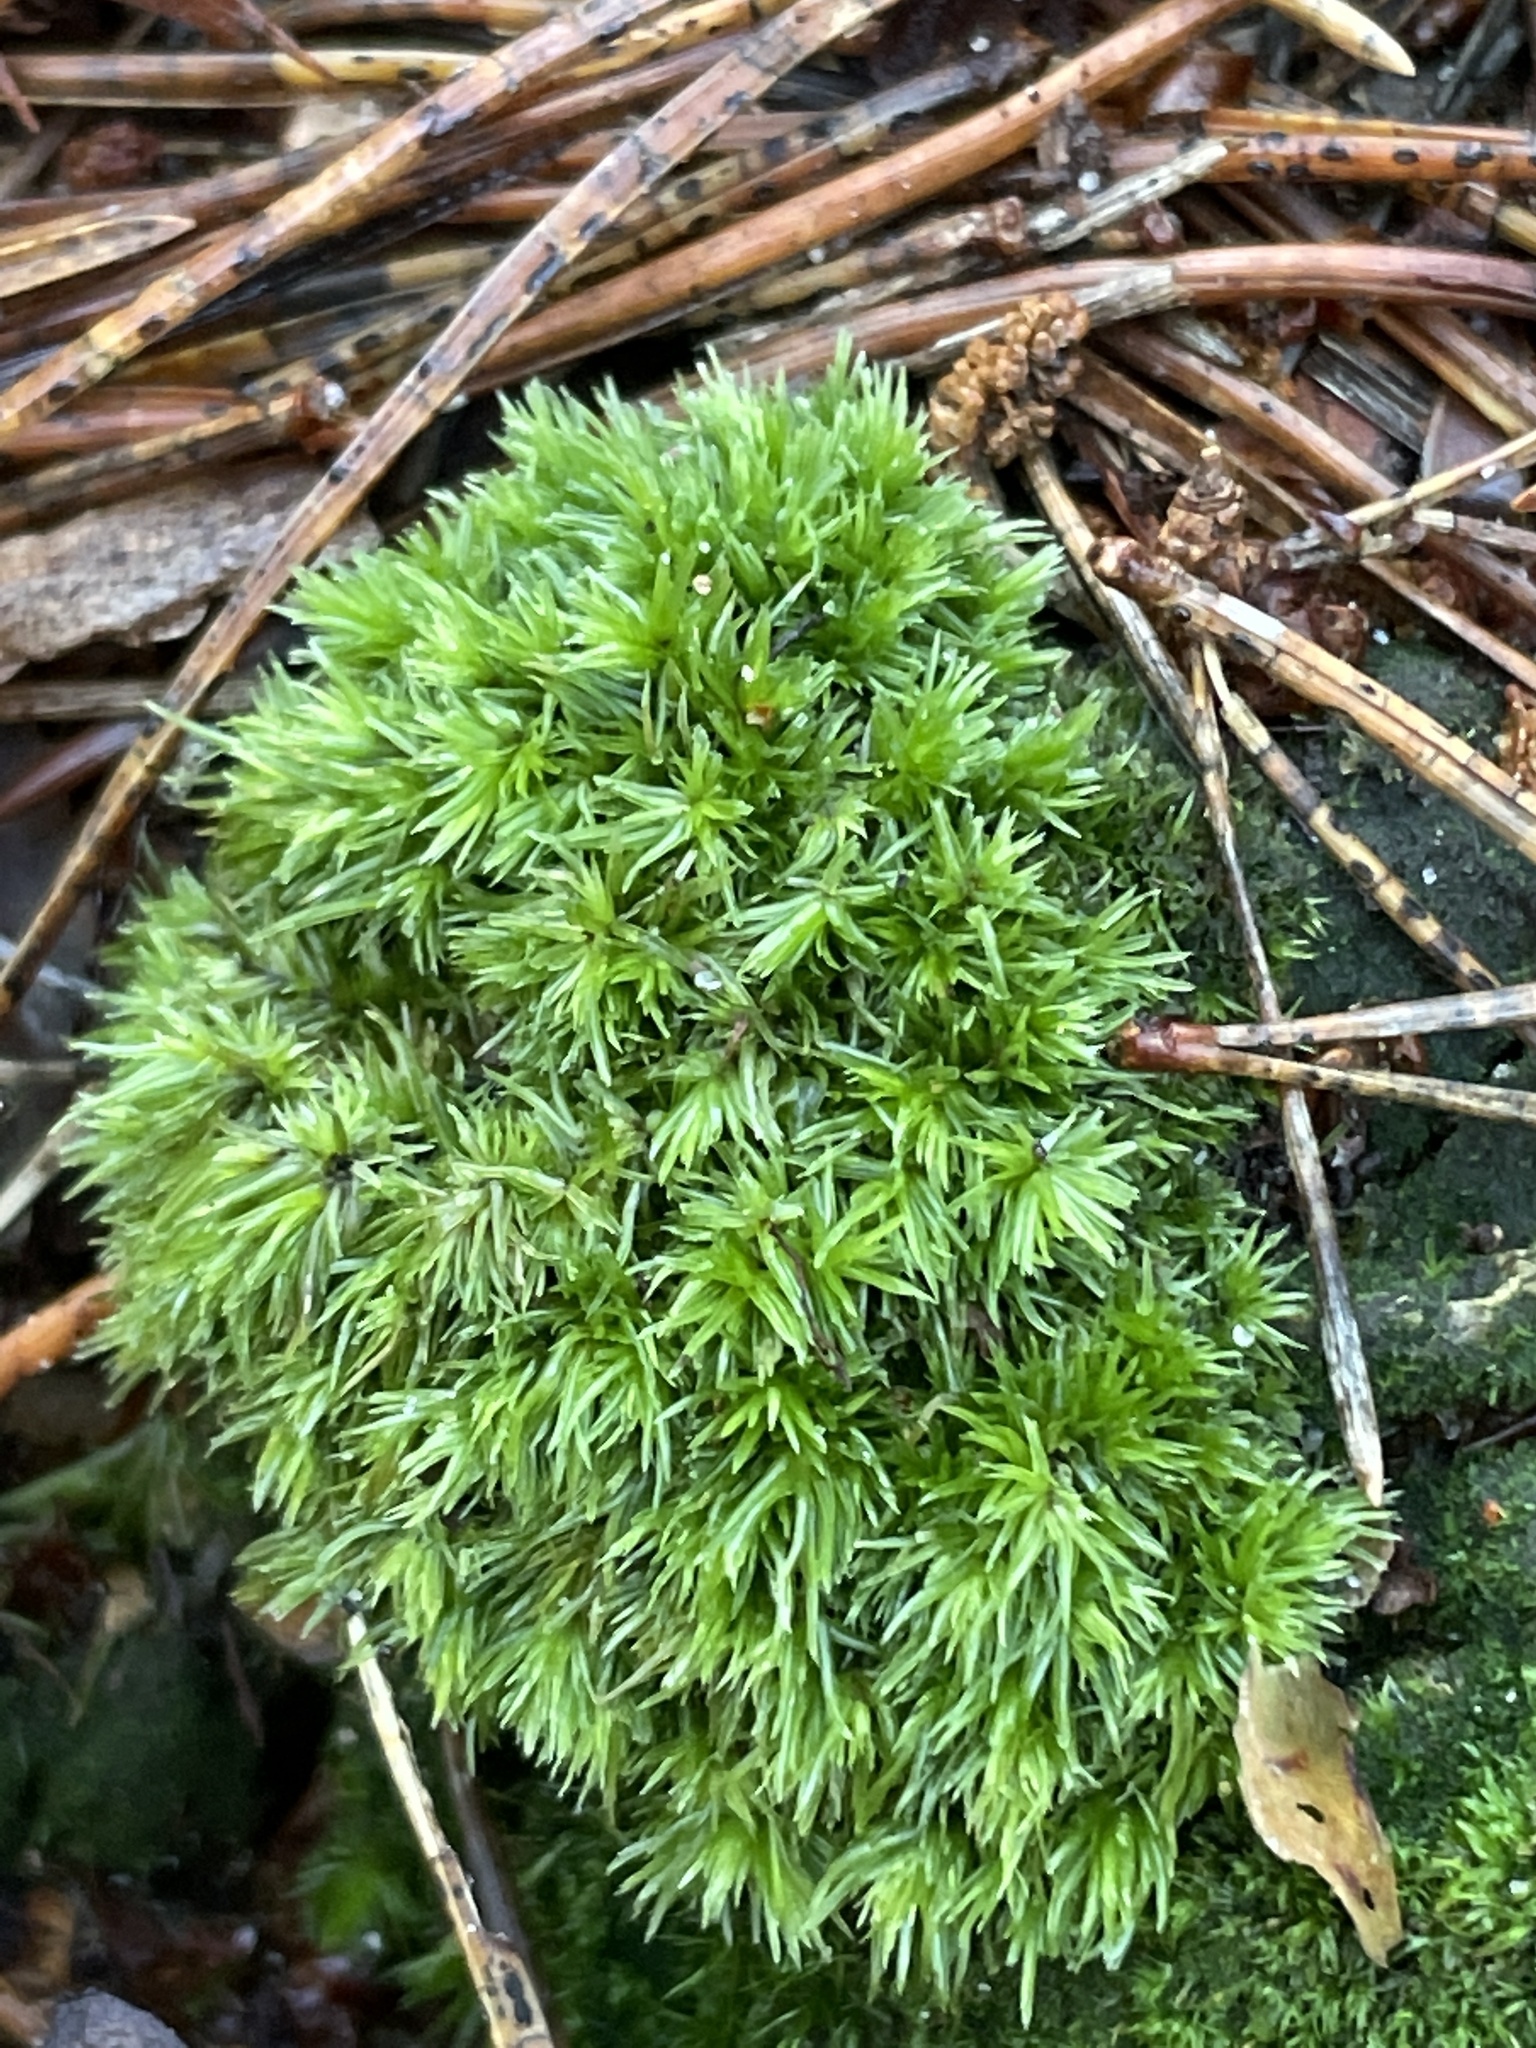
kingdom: Plantae
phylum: Bryophyta
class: Bryopsida
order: Dicranales
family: Leucobryaceae
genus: Leucobryum
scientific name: Leucobryum glaucum
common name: Large white-moss
